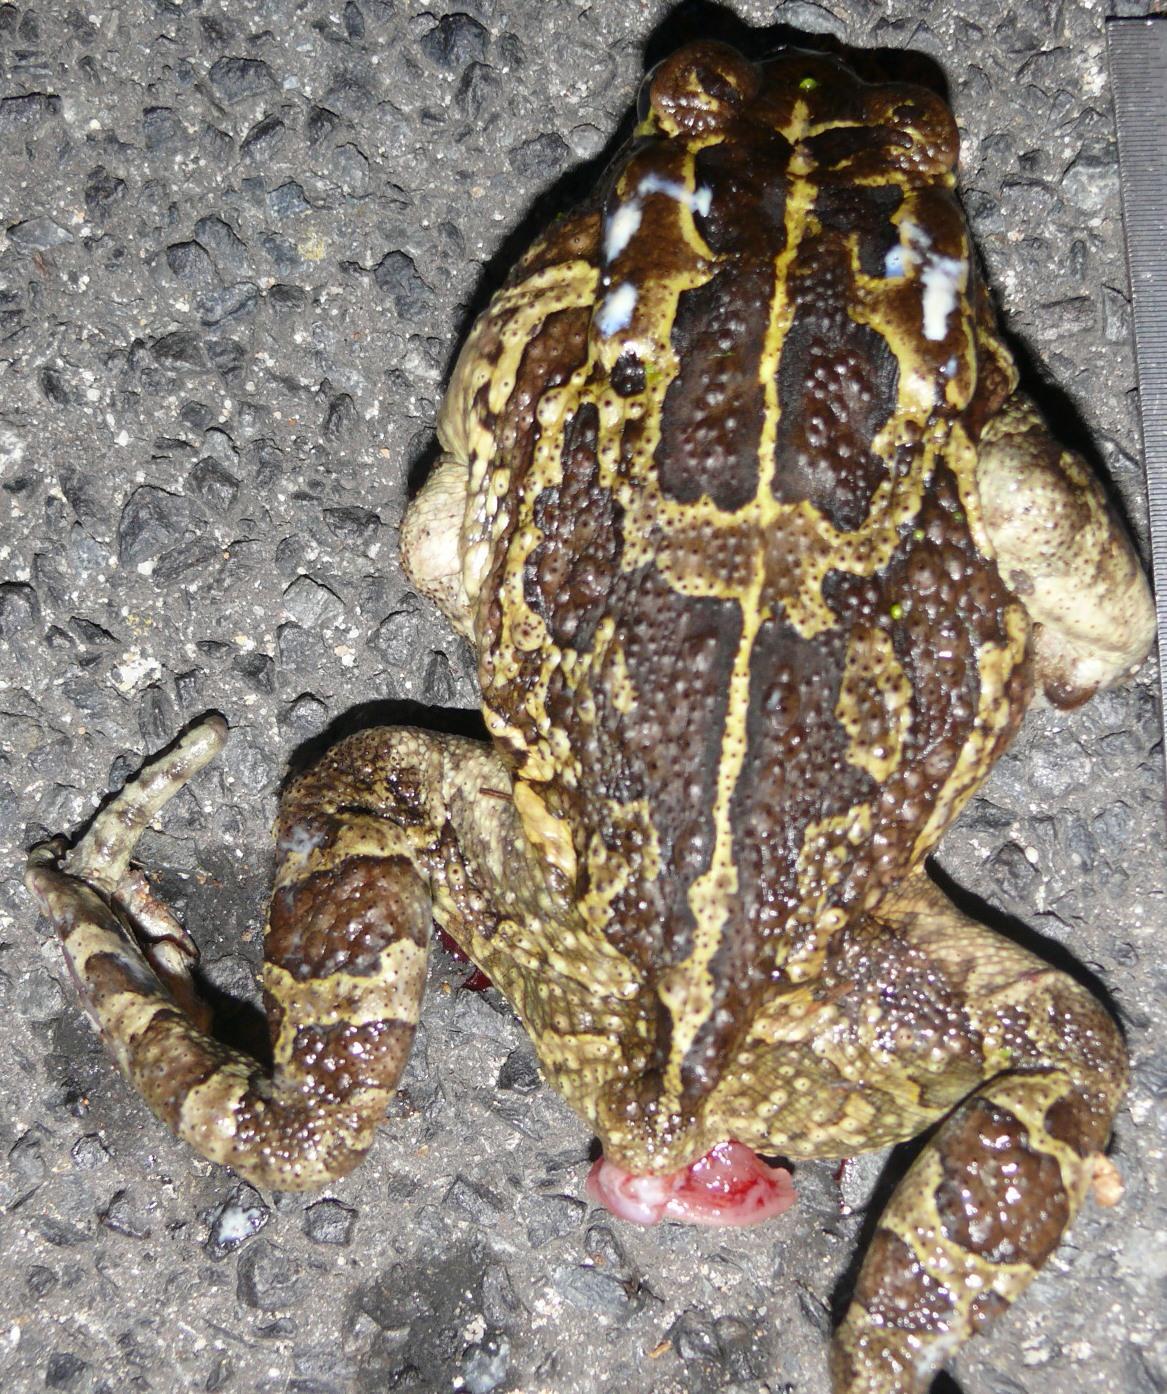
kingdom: Animalia
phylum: Chordata
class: Amphibia
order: Anura
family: Bufonidae
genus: Sclerophrys
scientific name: Sclerophrys pantherina
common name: Panther toad
